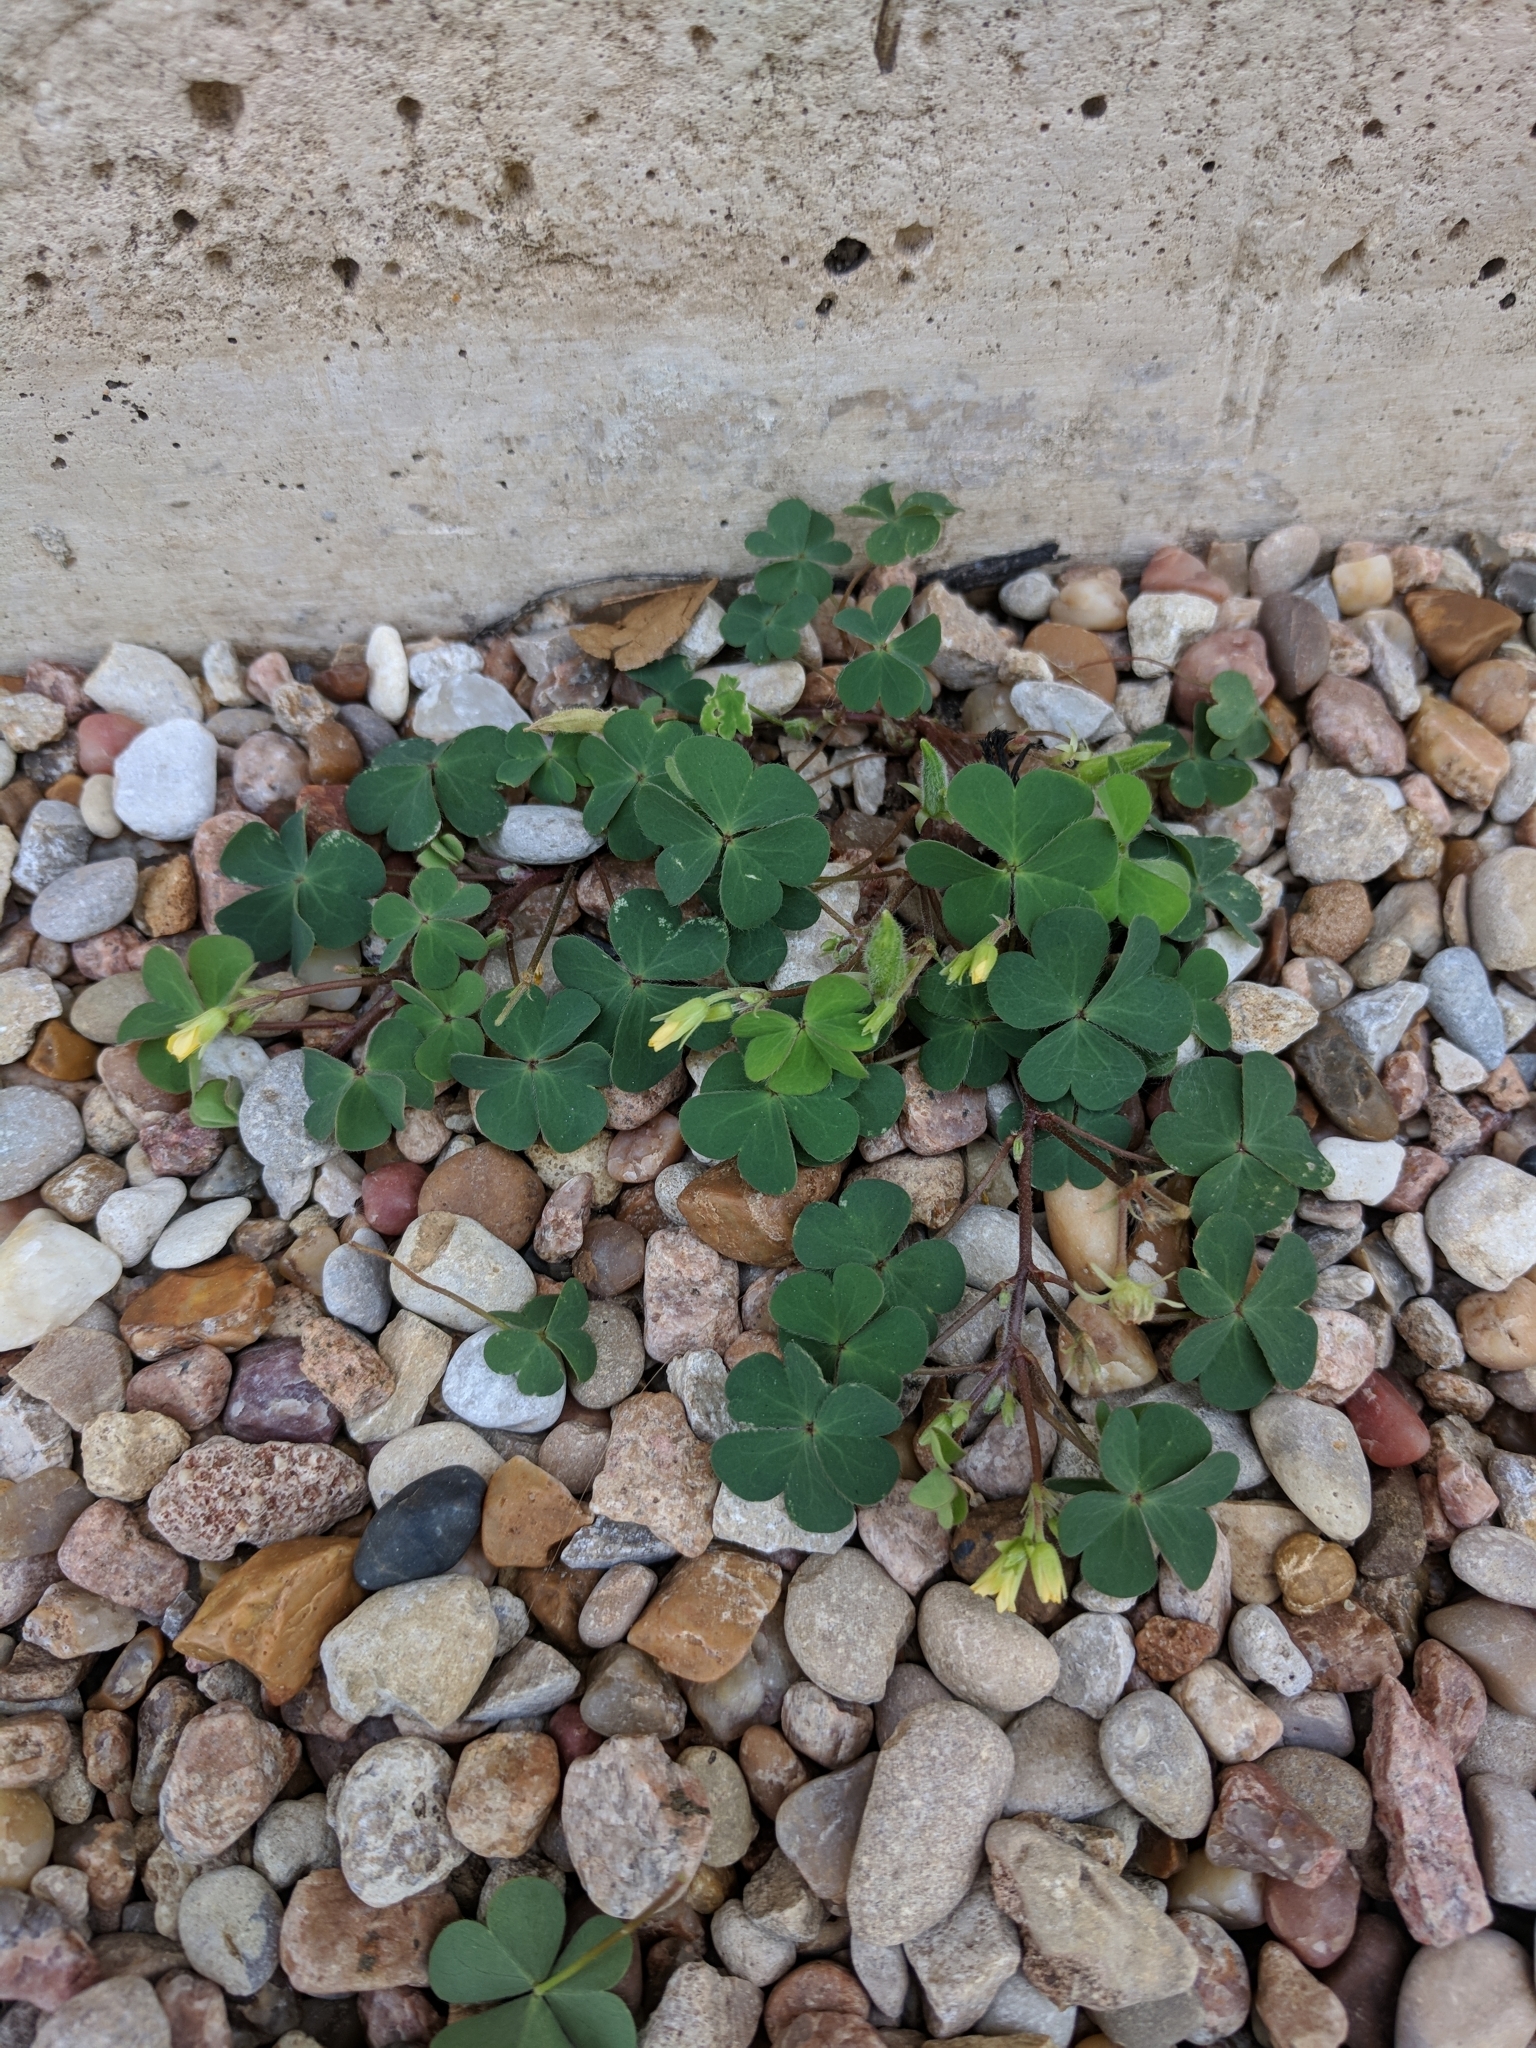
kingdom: Plantae
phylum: Tracheophyta
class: Magnoliopsida
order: Oxalidales
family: Oxalidaceae
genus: Oxalis
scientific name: Oxalis corniculata
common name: Procumbent yellow-sorrel
